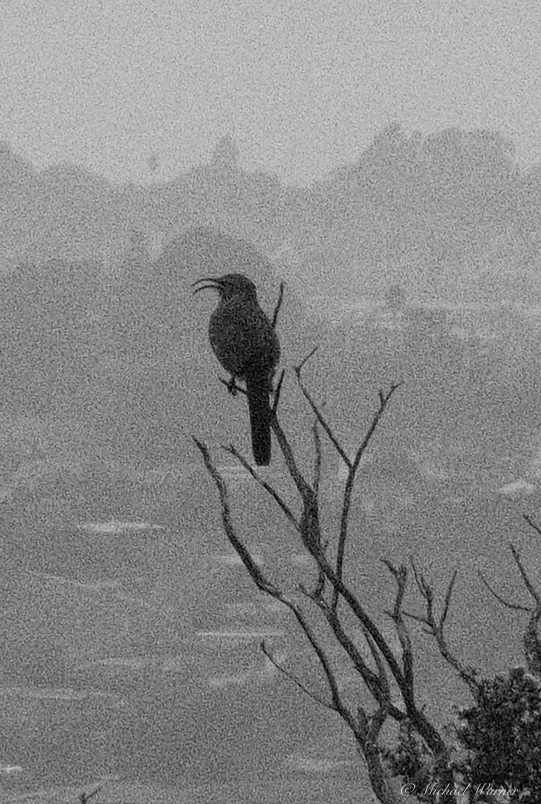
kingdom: Animalia
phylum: Chordata
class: Aves
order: Passeriformes
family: Mimidae
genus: Toxostoma
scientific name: Toxostoma redivivum
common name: California thrasher
